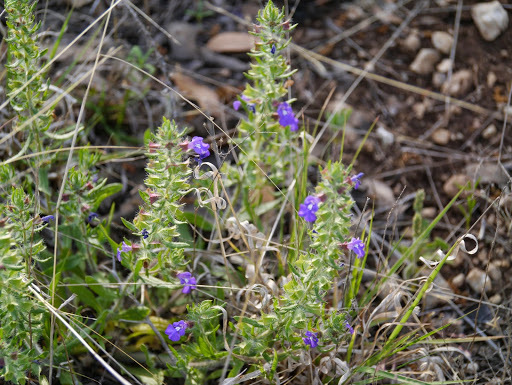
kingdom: Plantae
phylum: Tracheophyta
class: Magnoliopsida
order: Lamiales
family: Lamiaceae
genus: Scutellaria
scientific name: Scutellaria drummondii
